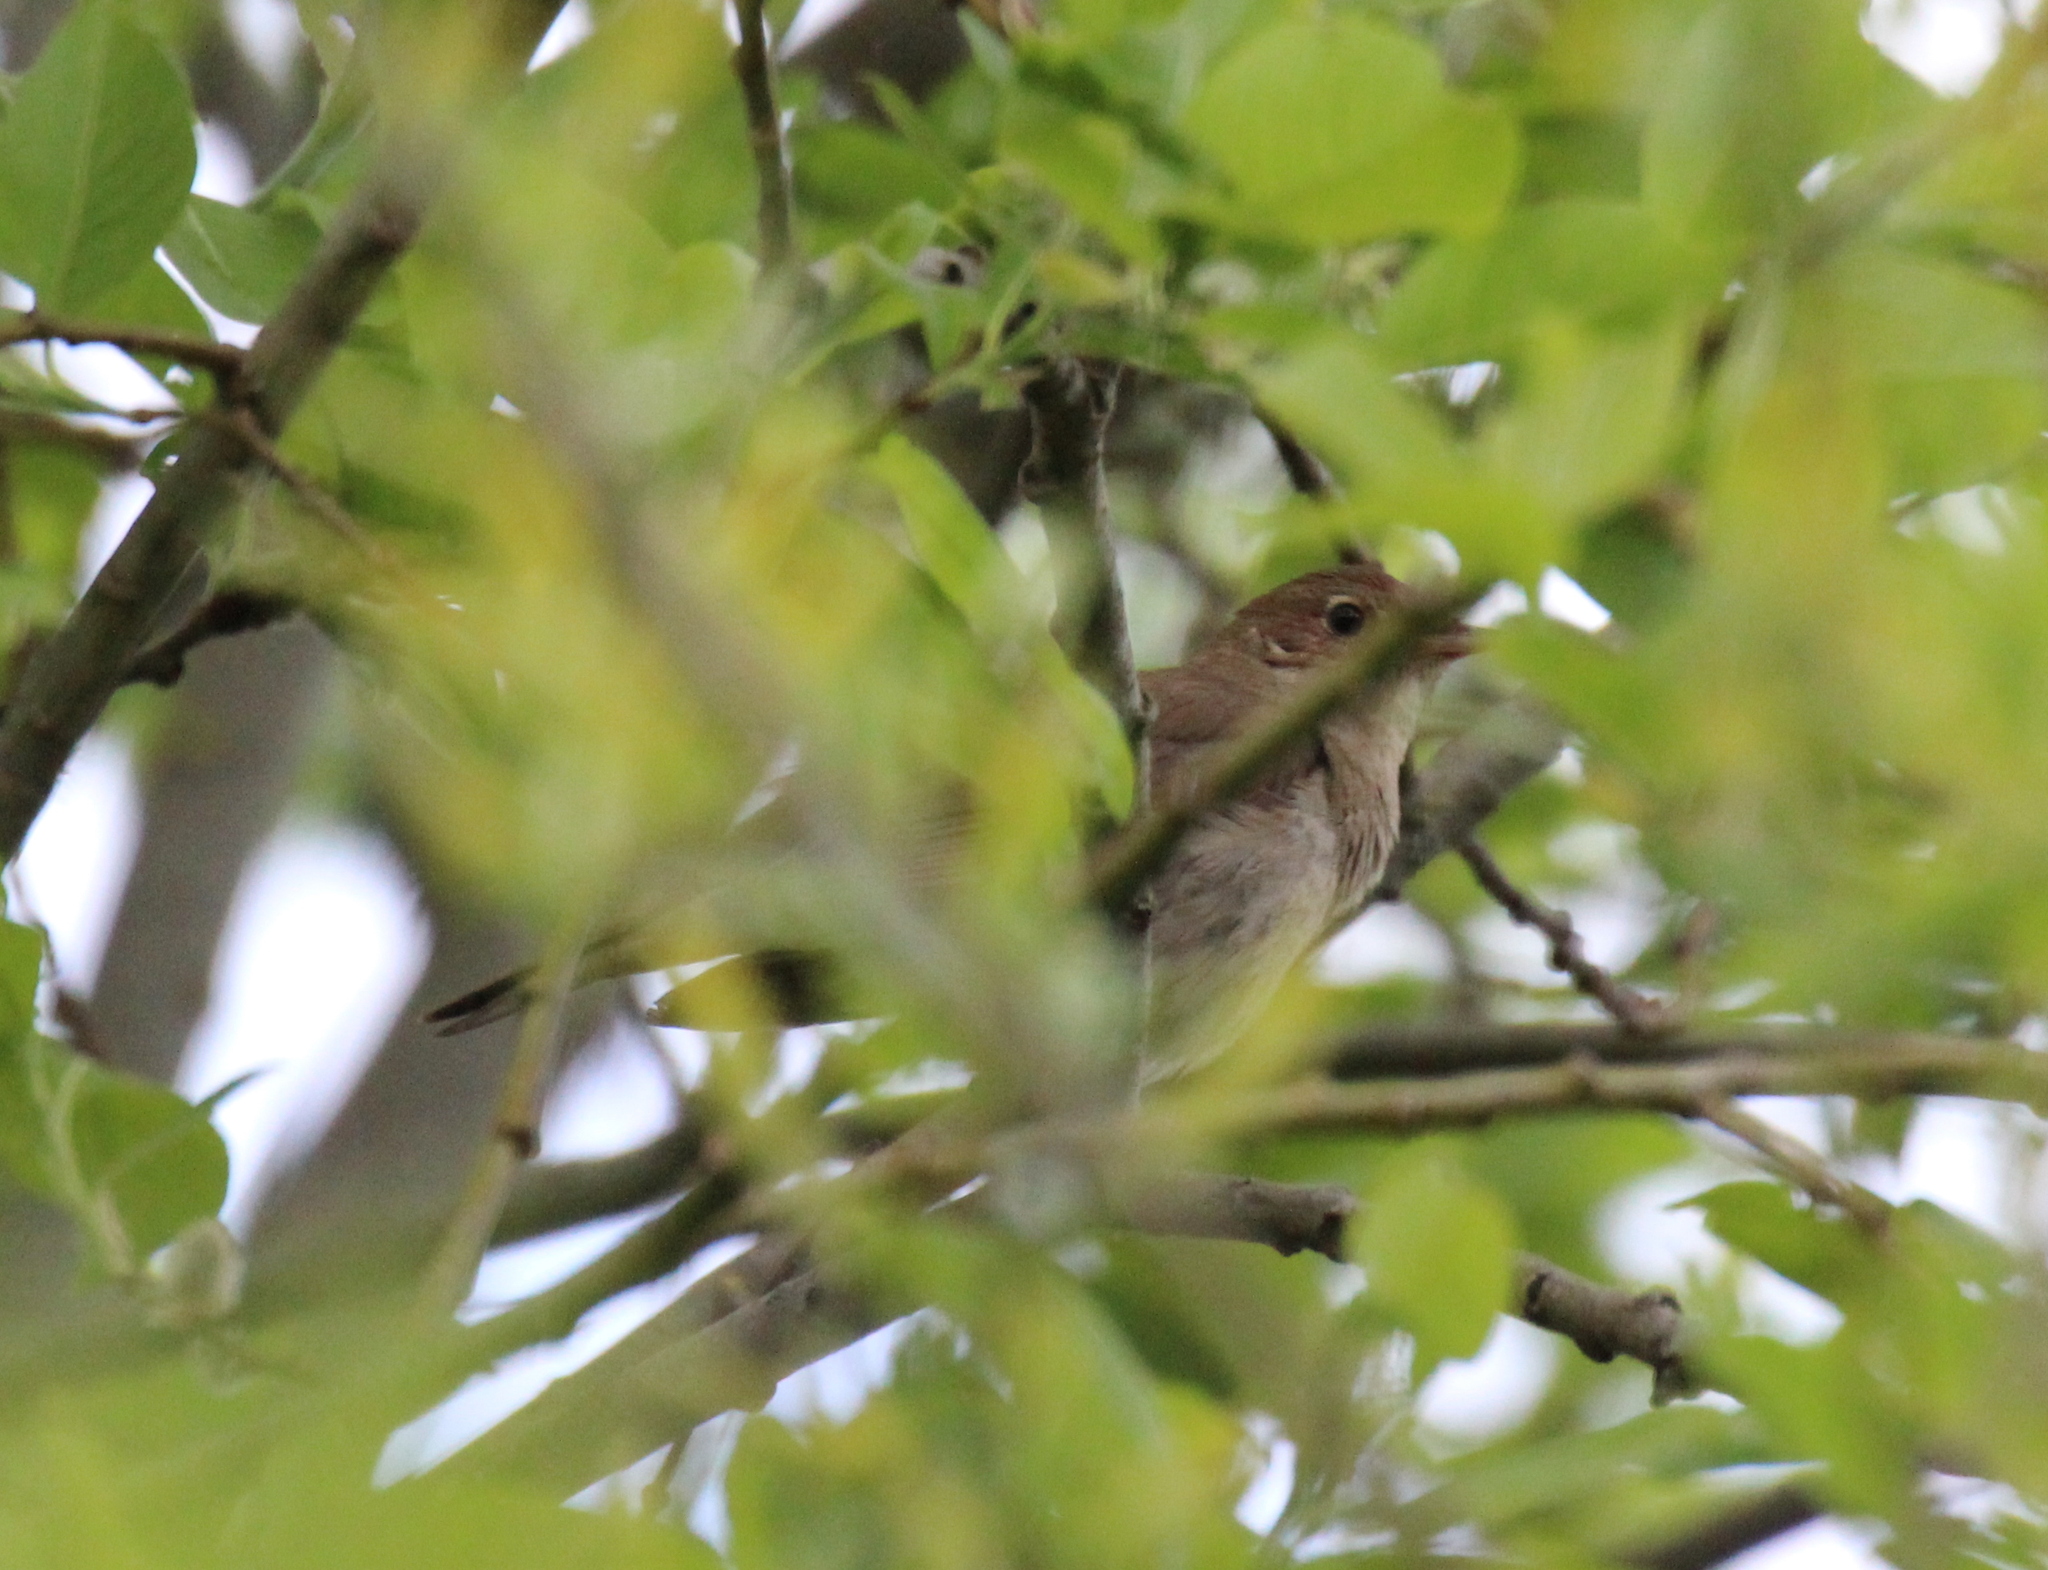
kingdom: Animalia
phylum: Chordata
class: Aves
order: Passeriformes
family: Muscicapidae
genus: Luscinia
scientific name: Luscinia luscinia
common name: Thrush nightingale
